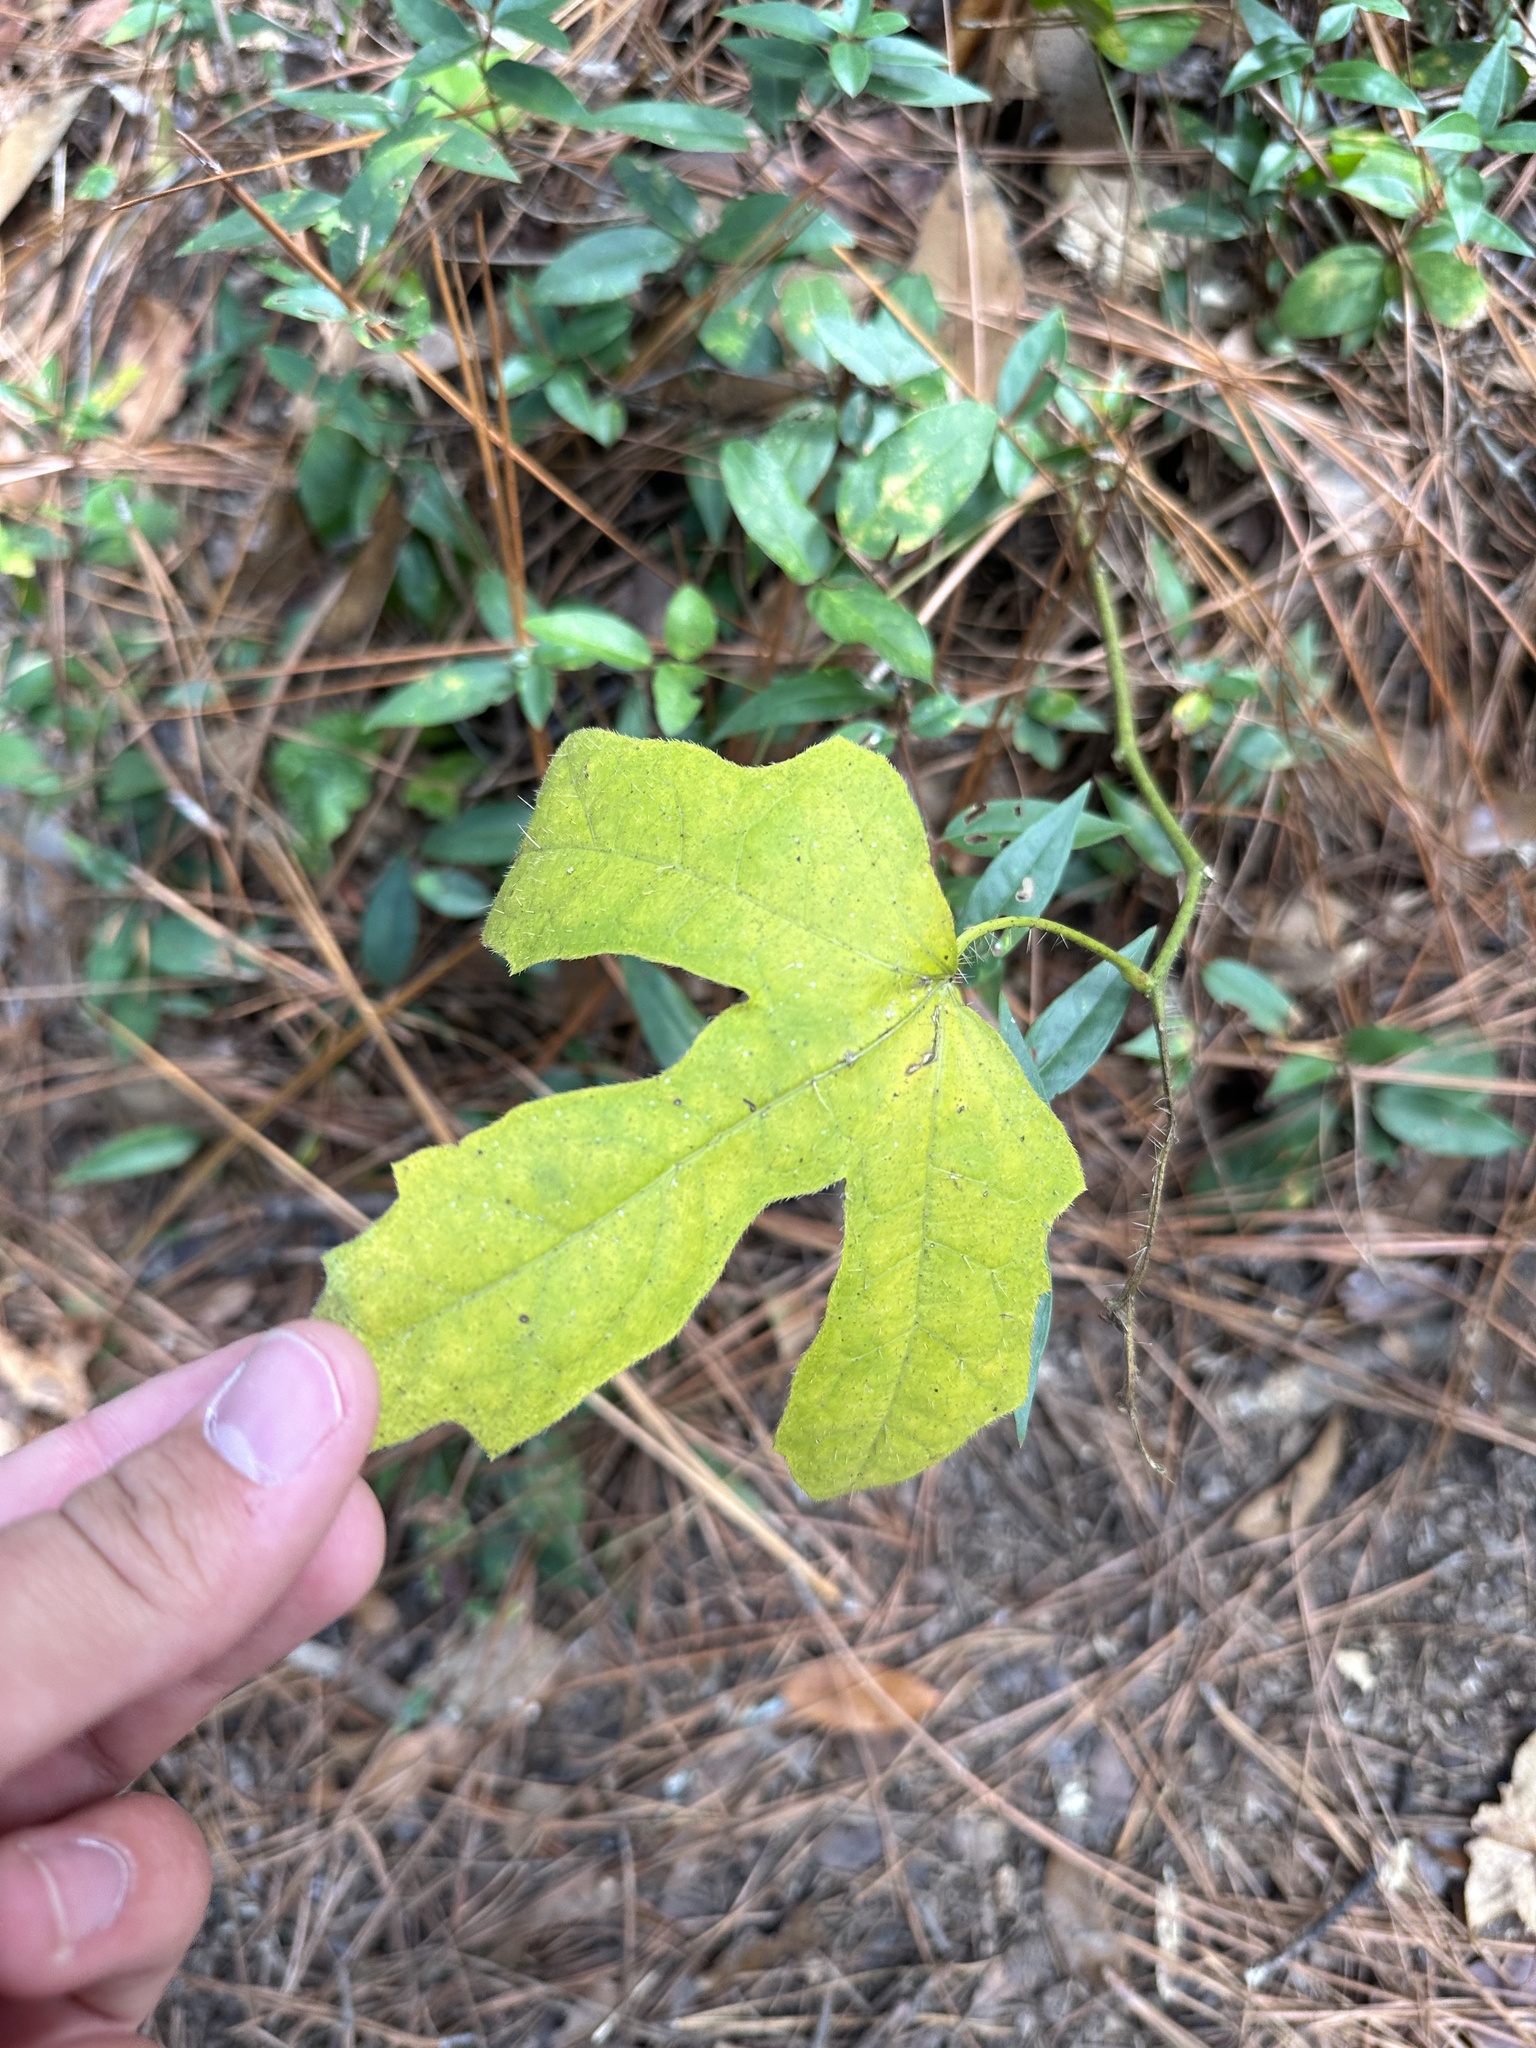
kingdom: Plantae
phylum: Tracheophyta
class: Magnoliopsida
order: Malpighiales
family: Euphorbiaceae
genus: Cnidoscolus
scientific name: Cnidoscolus stimulosus
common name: Bull-nettle
